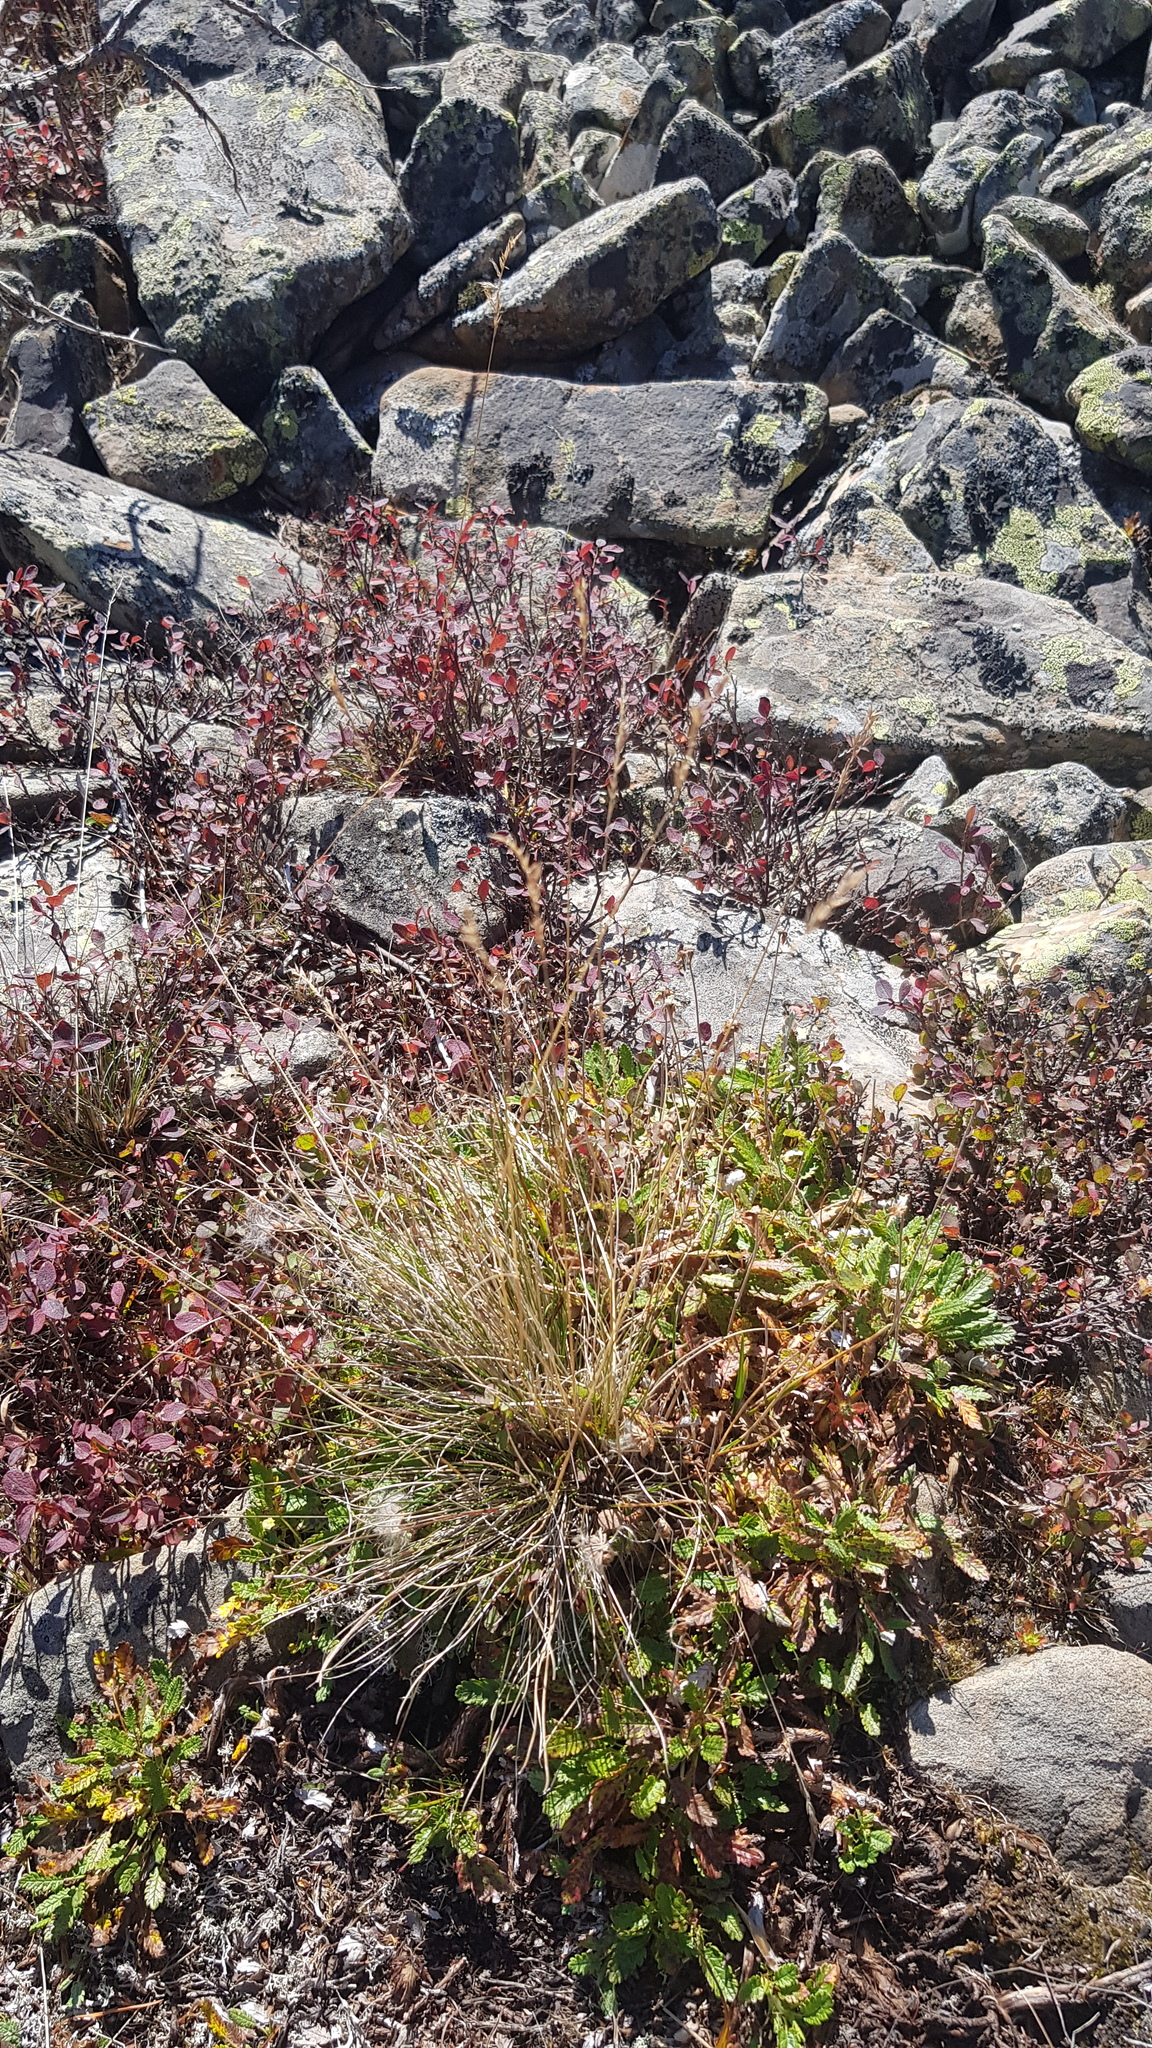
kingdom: Plantae
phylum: Tracheophyta
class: Liliopsida
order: Poales
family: Poaceae
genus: Festuca
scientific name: Festuca ovina
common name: Sheep fescue
